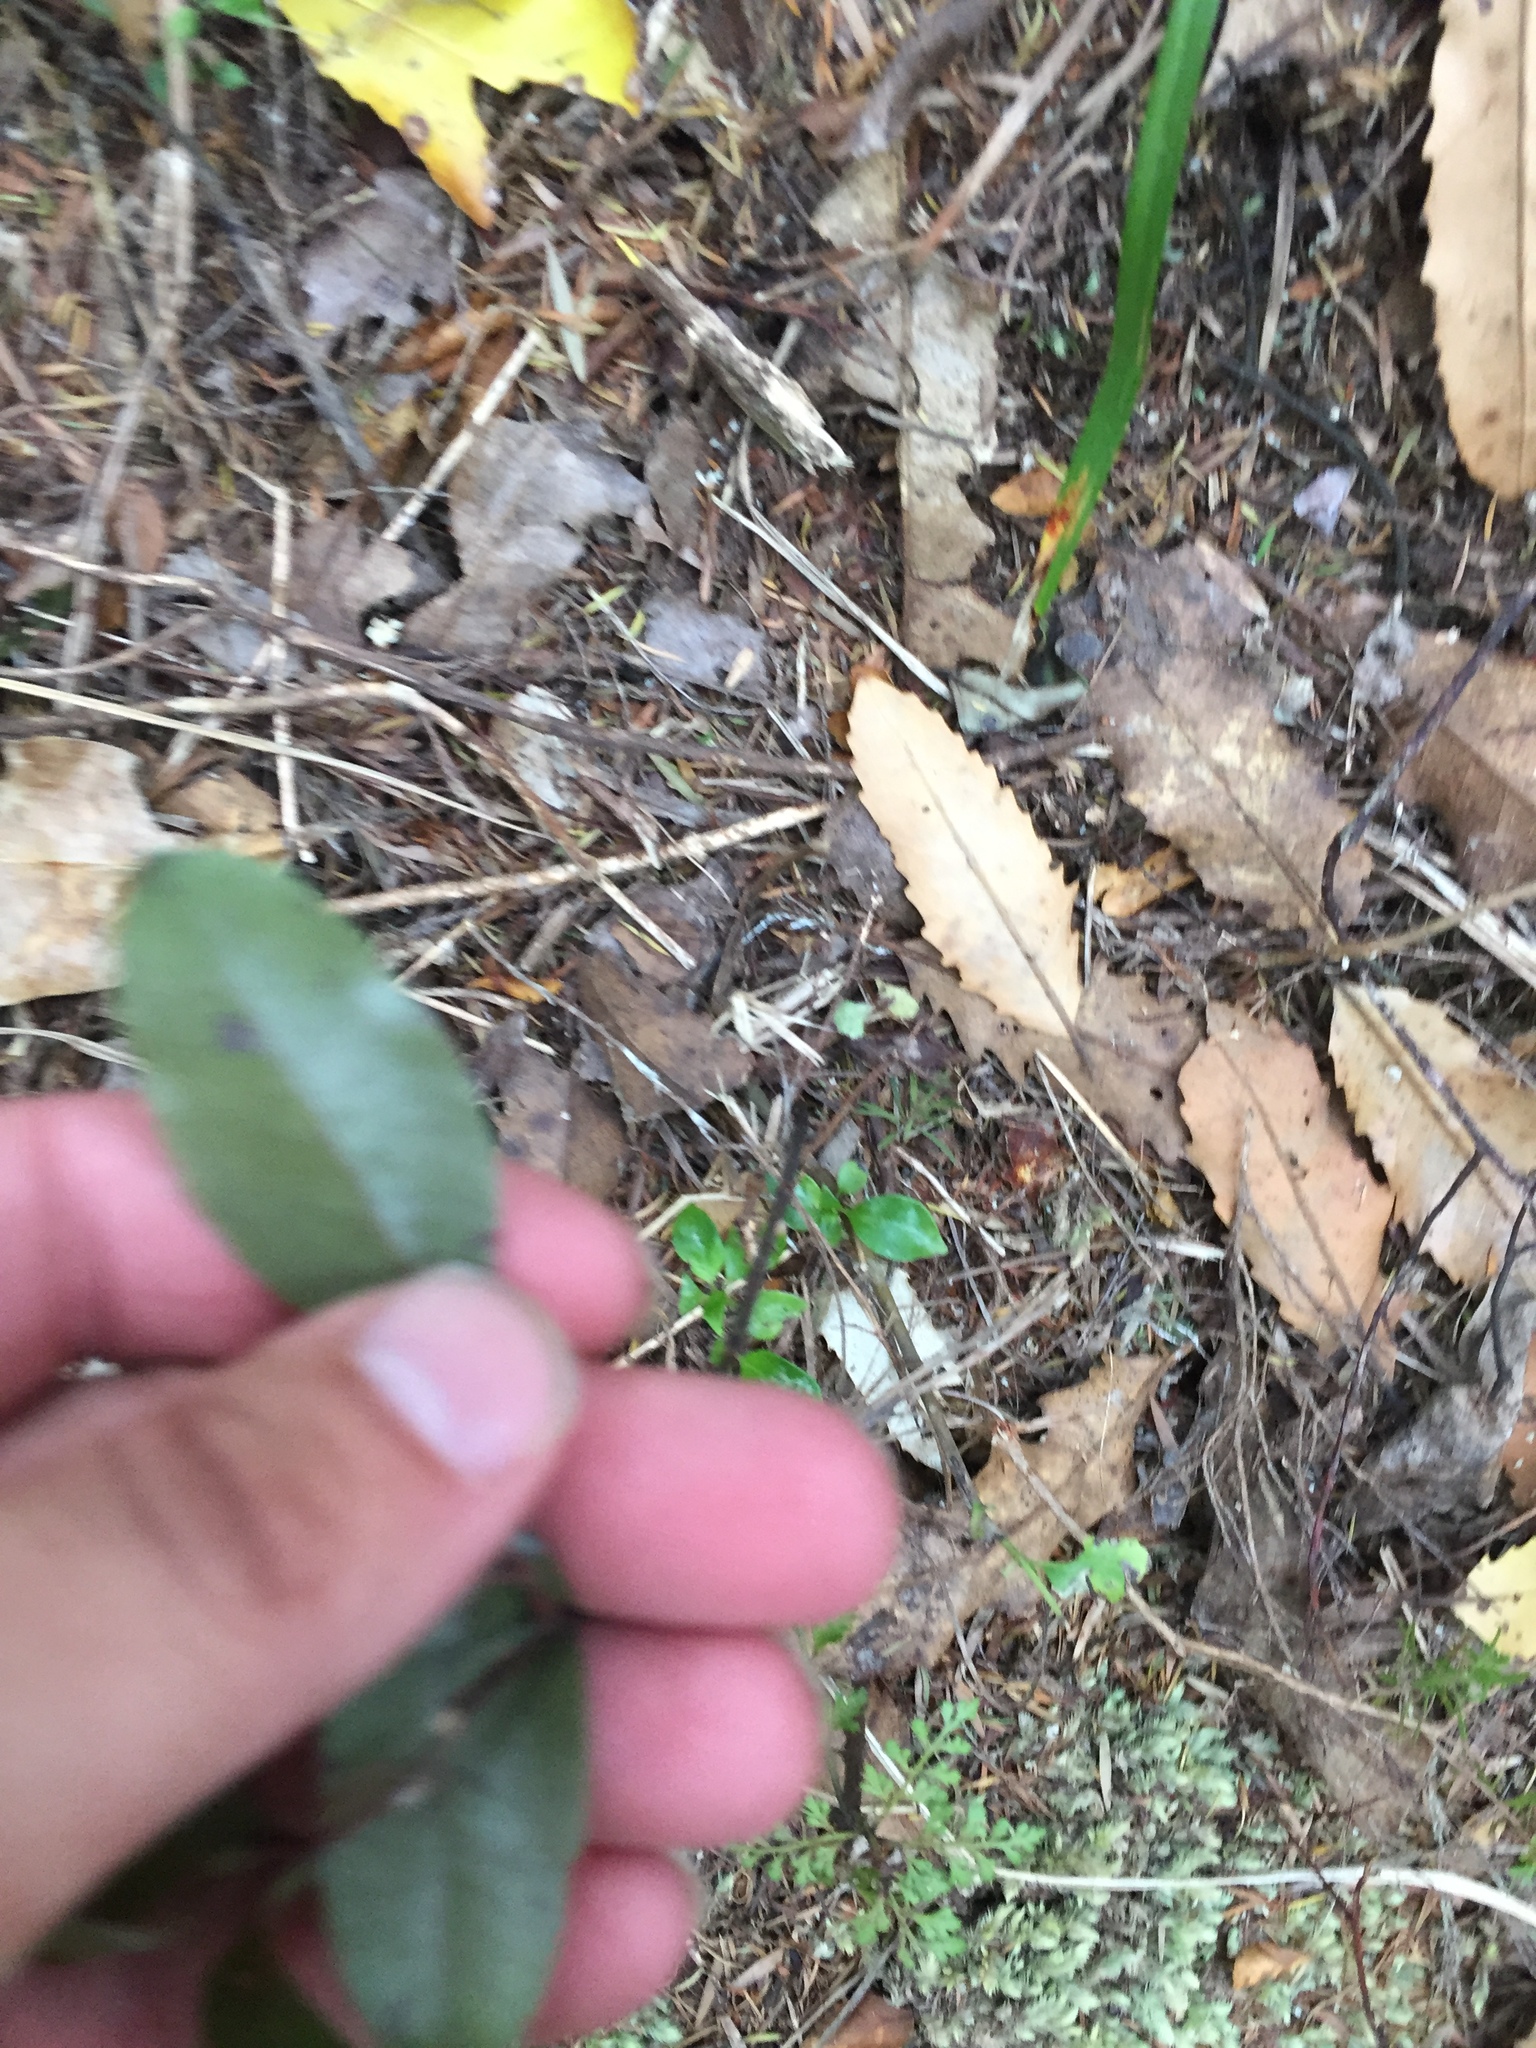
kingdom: Plantae
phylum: Tracheophyta
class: Liliopsida
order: Liliales
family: Ripogonaceae
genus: Ripogonum
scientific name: Ripogonum scandens
